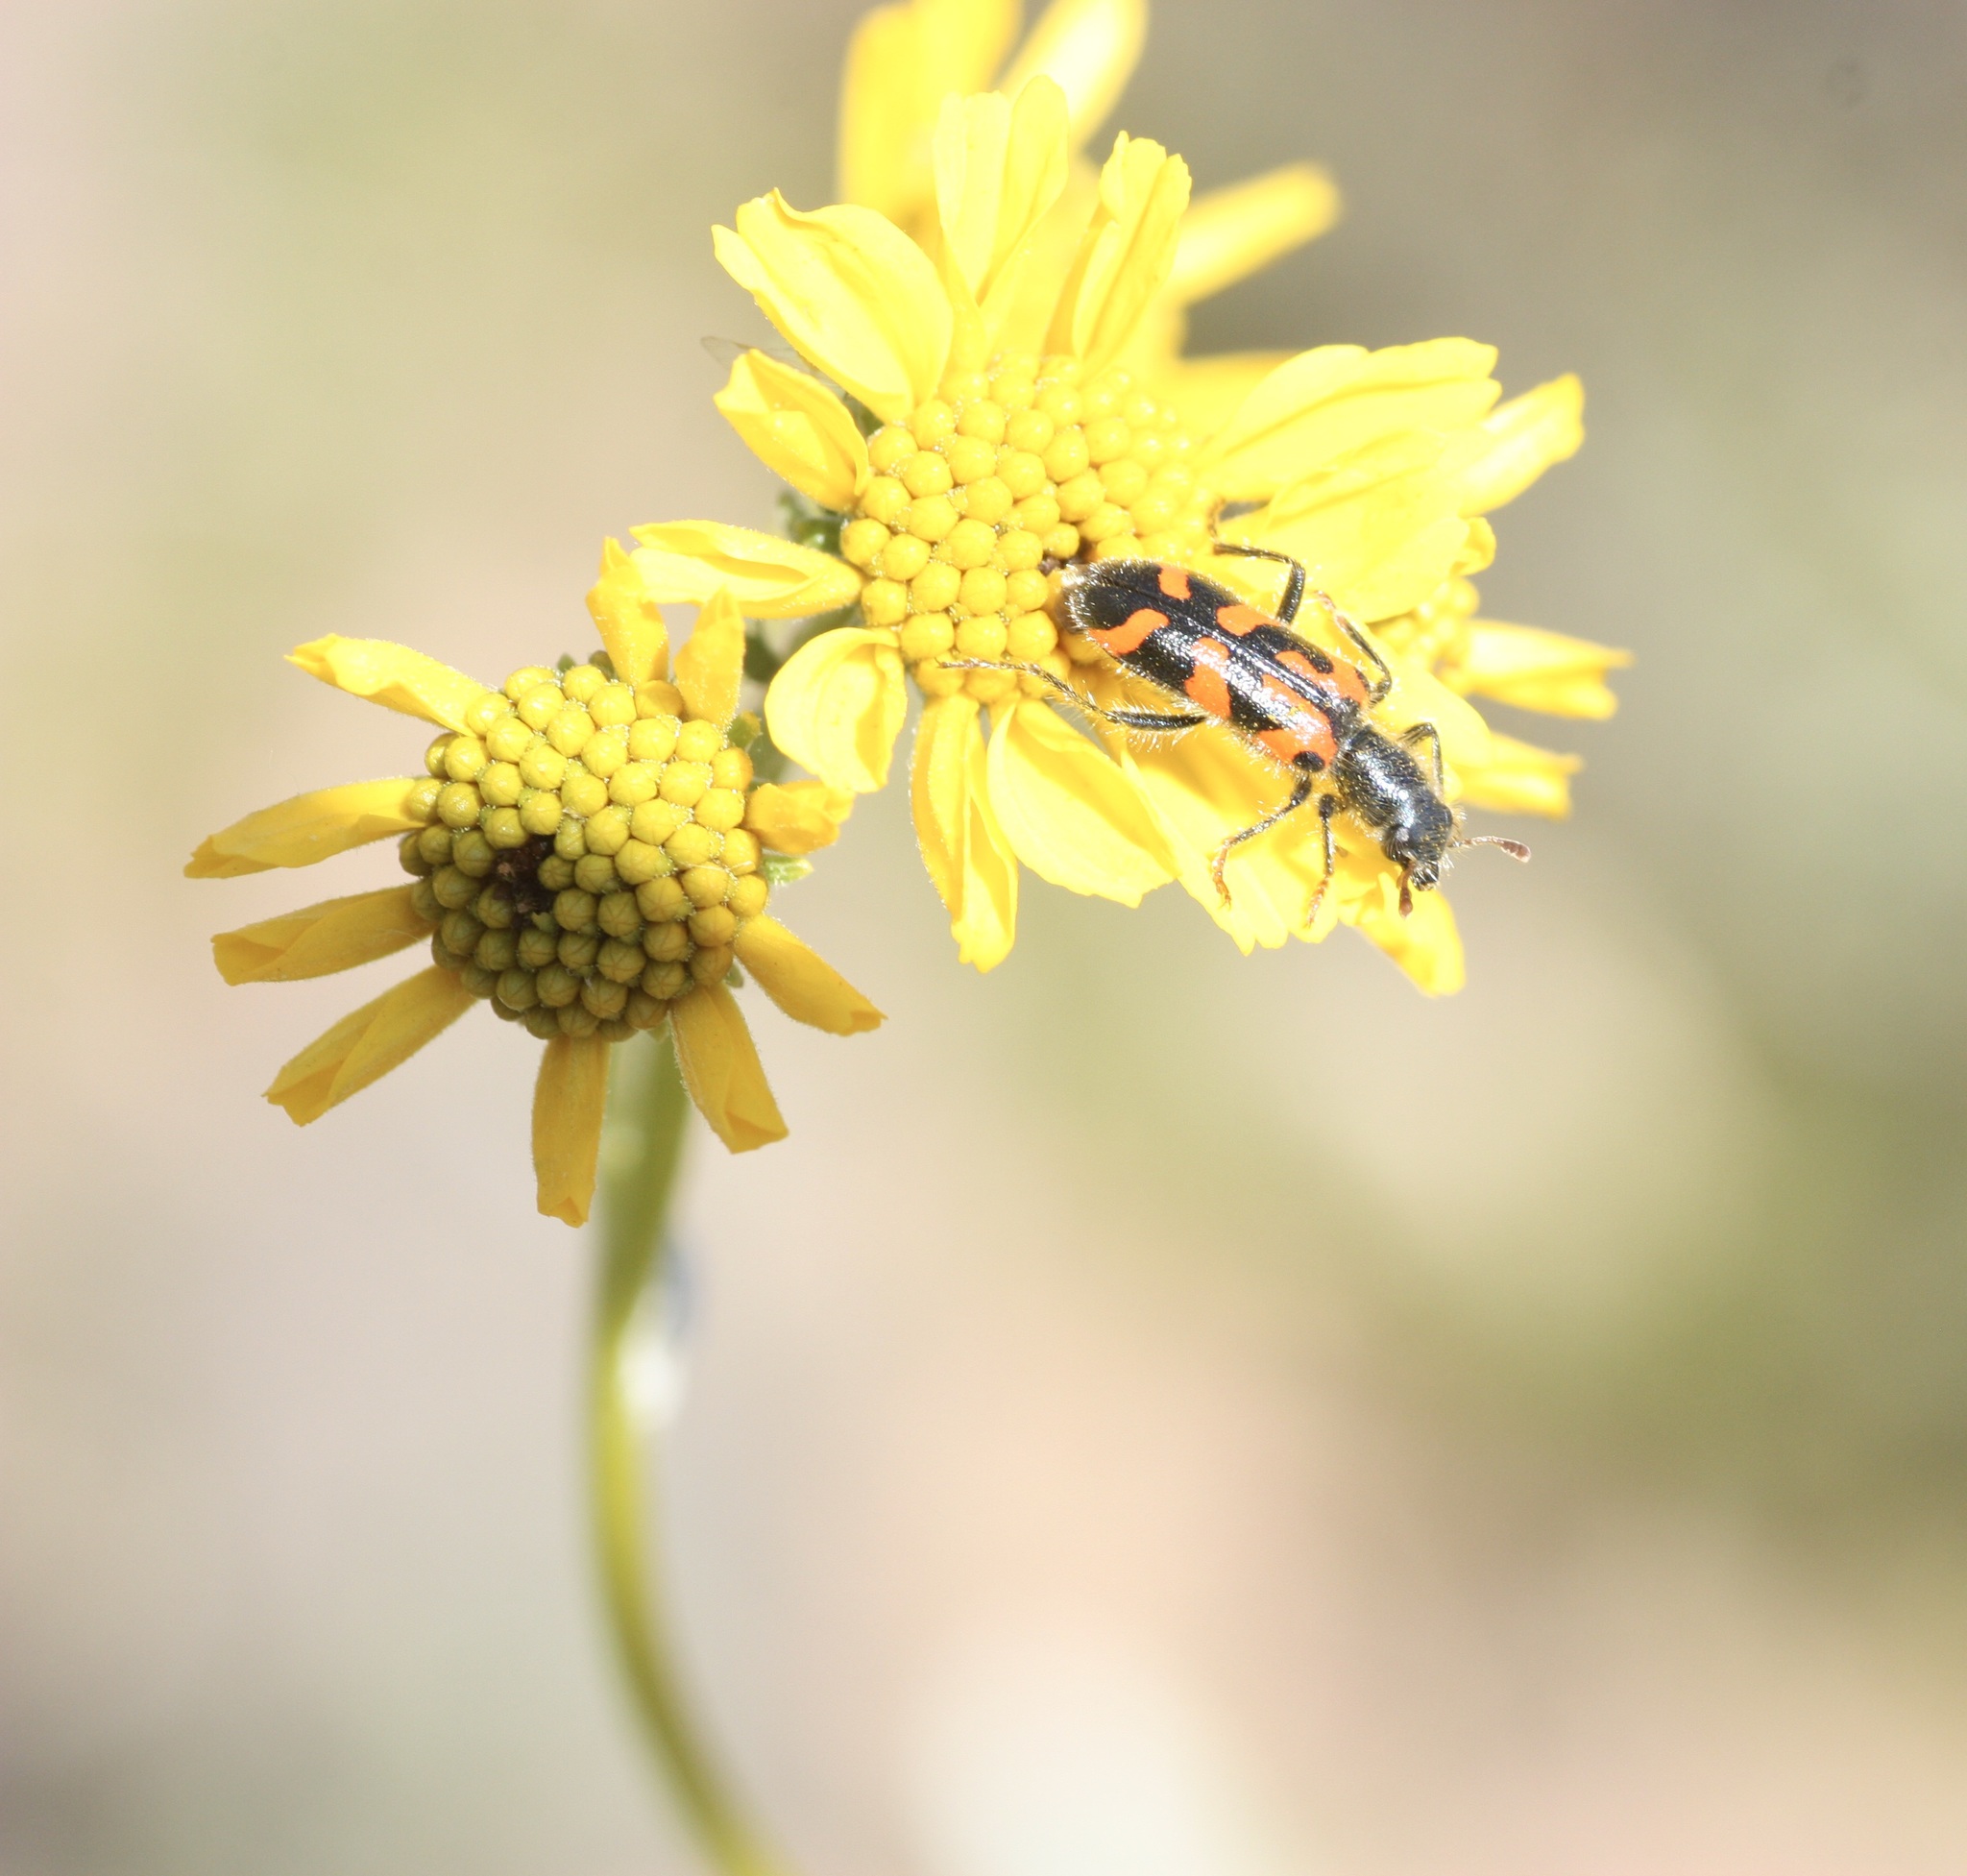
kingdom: Animalia
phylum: Arthropoda
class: Insecta
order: Coleoptera
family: Cleridae
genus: Trichodes
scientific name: Trichodes ornatus
